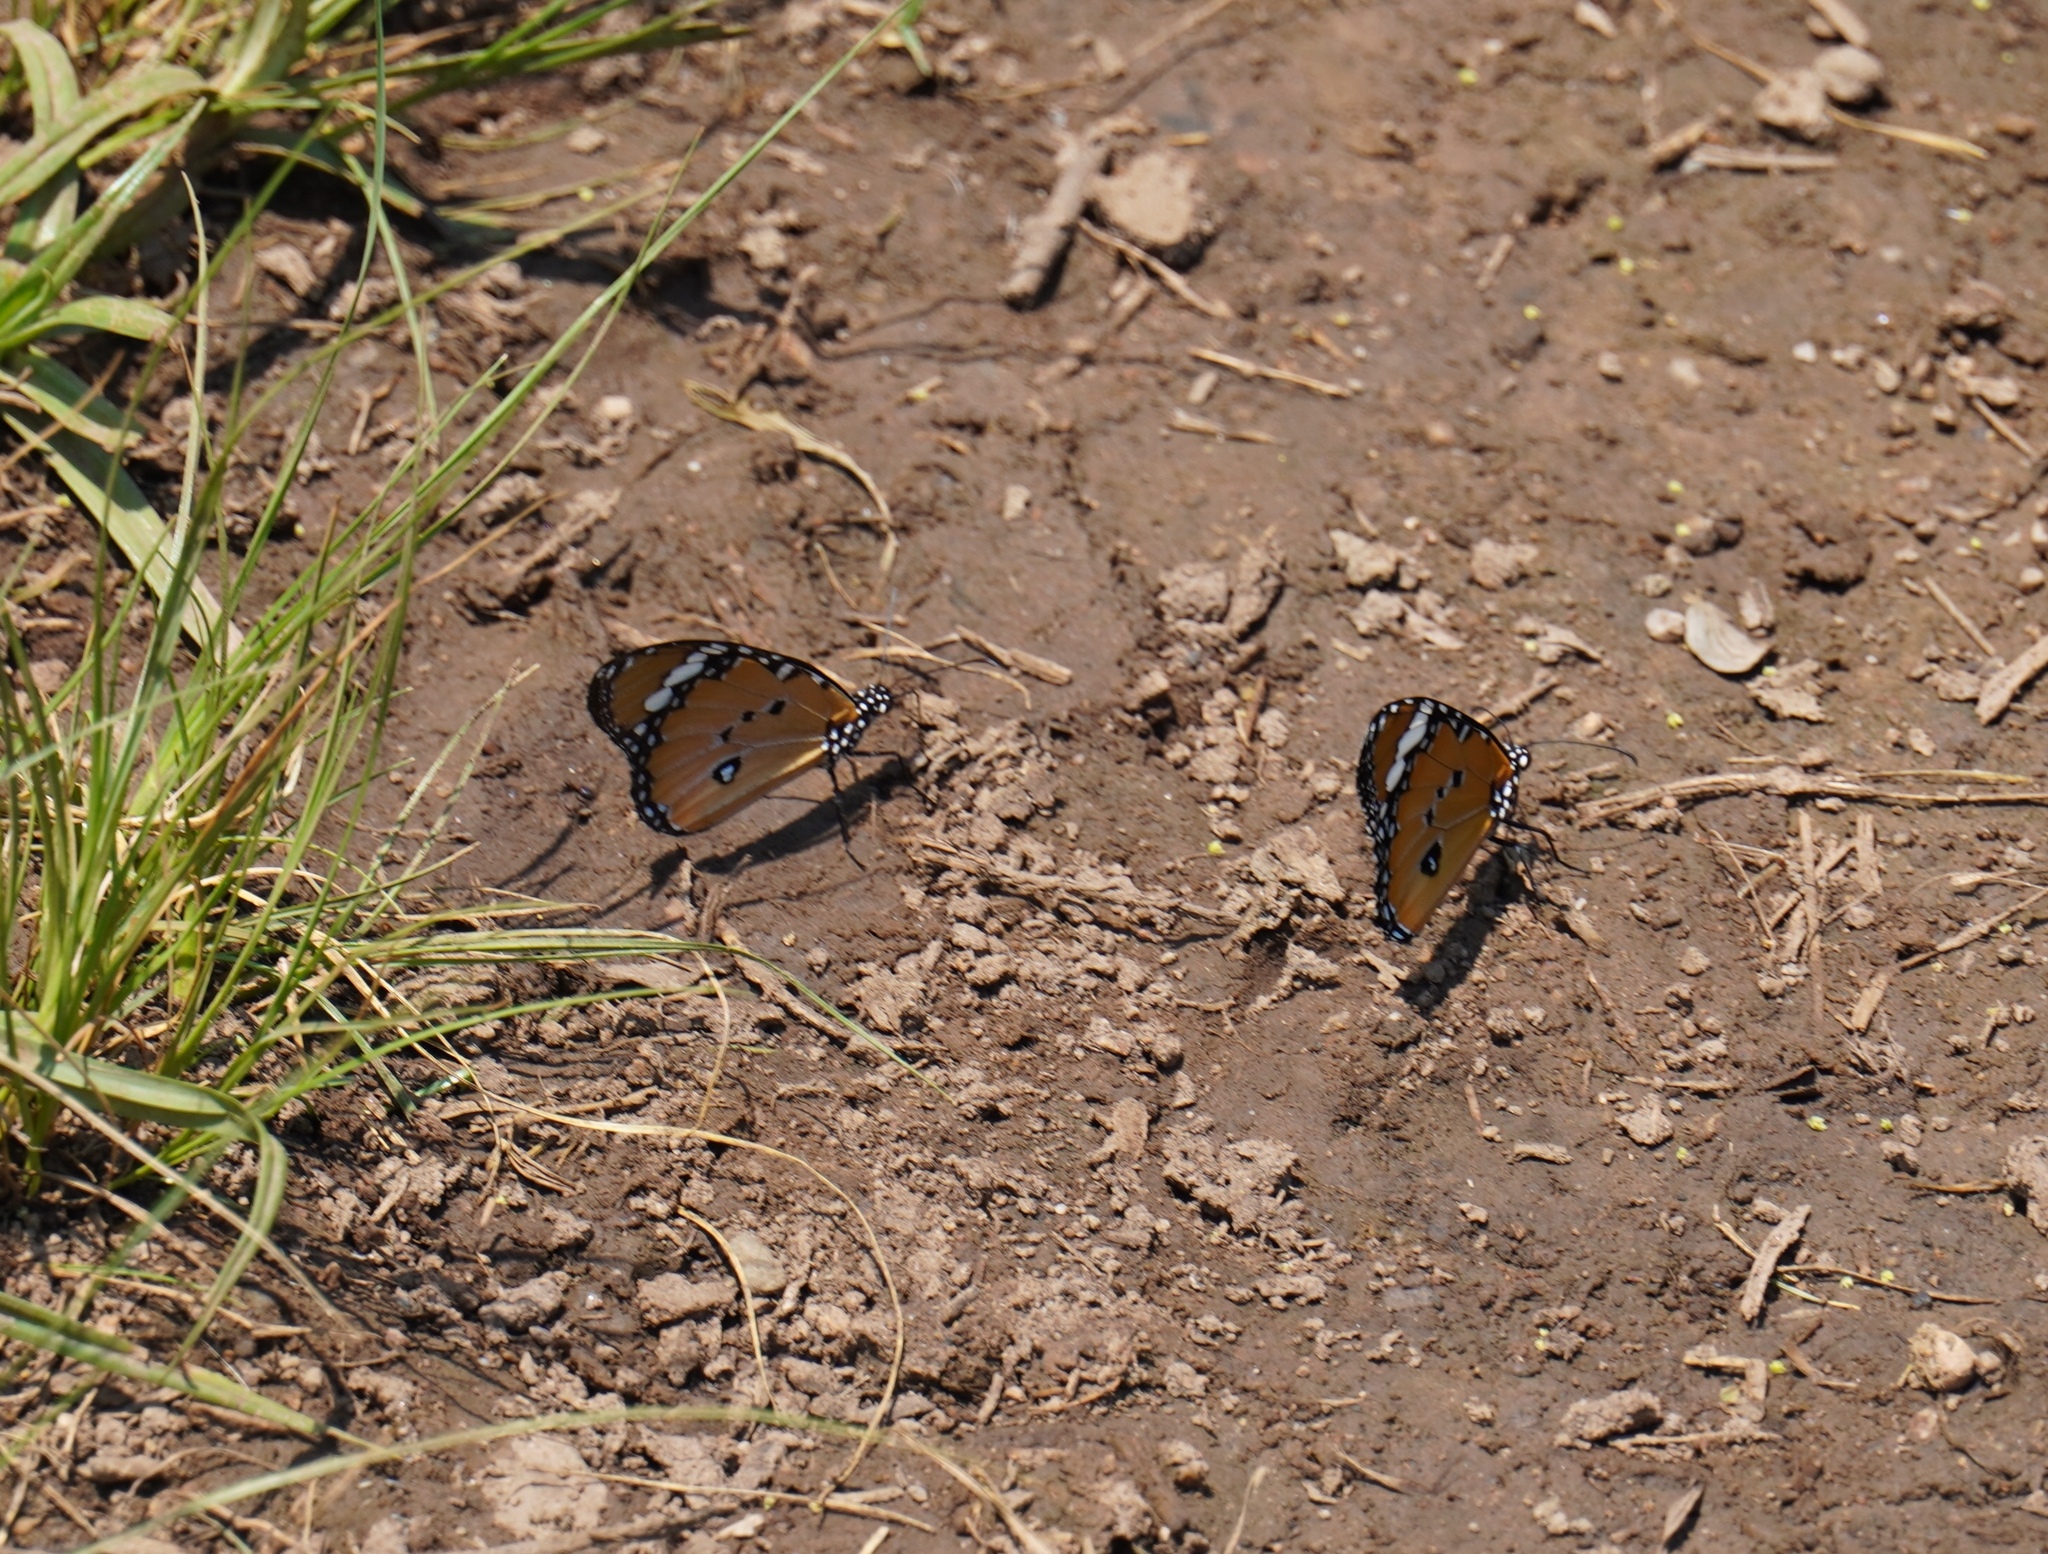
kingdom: Animalia
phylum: Arthropoda
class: Insecta
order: Lepidoptera
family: Nymphalidae
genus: Danaus
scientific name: Danaus chrysippus
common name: Plain tiger
